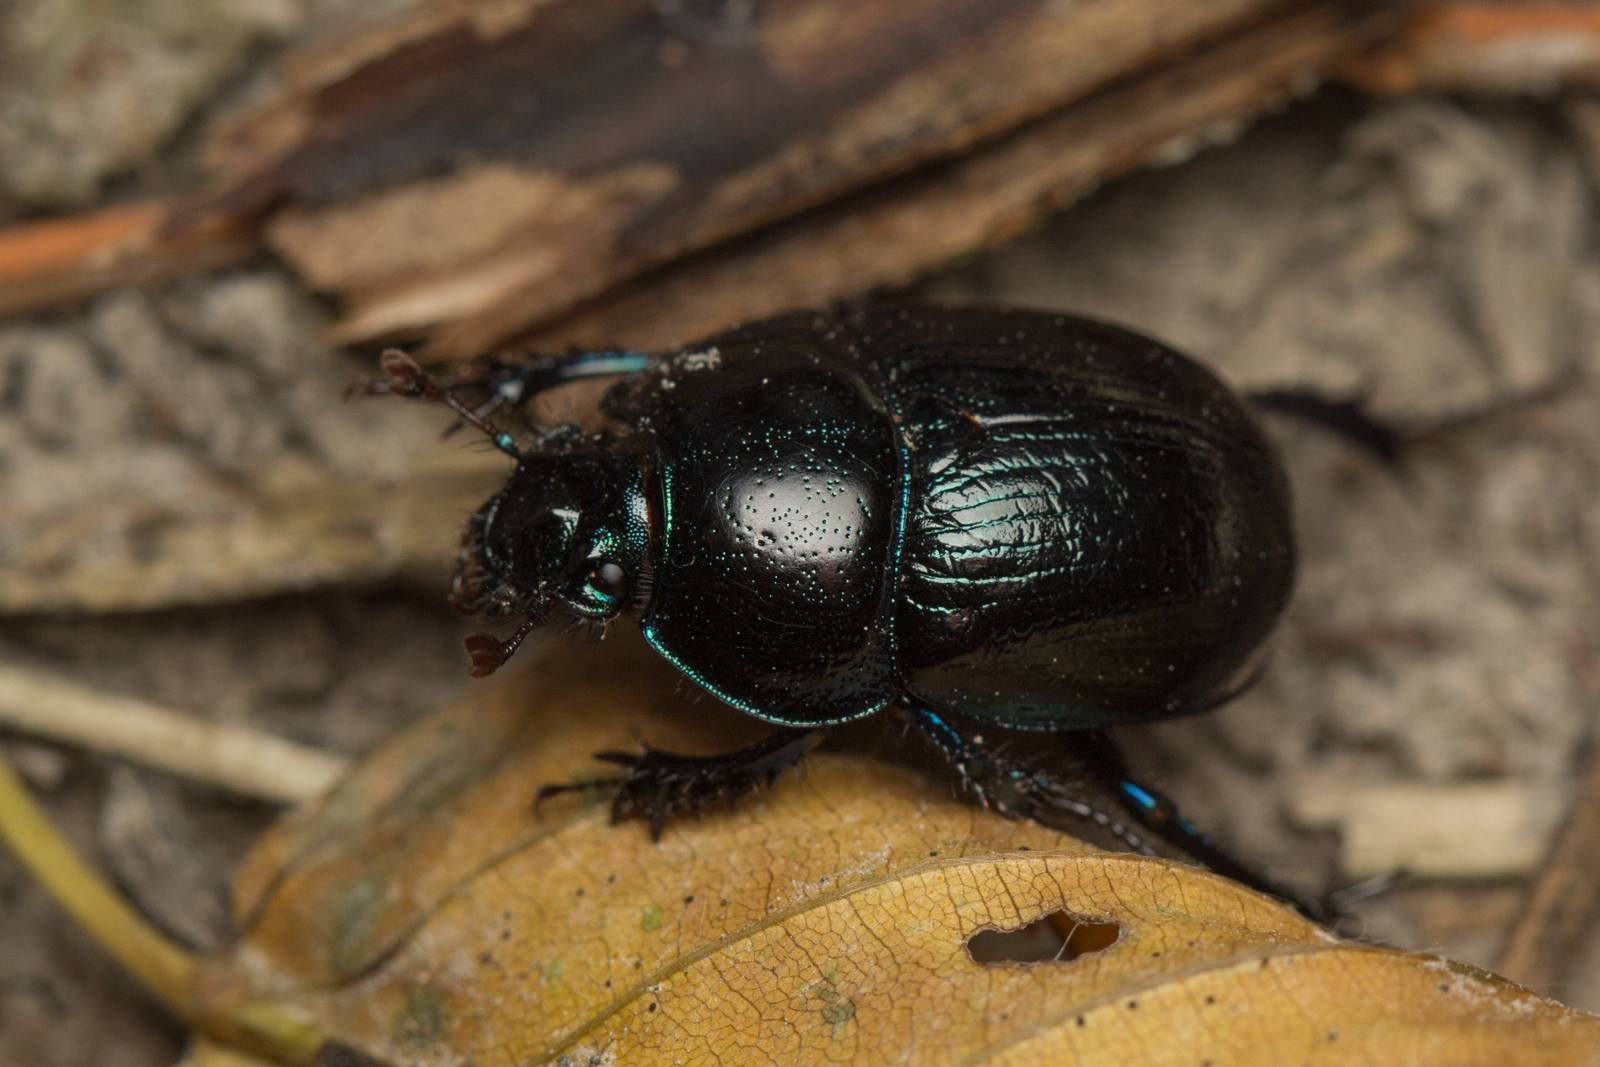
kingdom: Animalia
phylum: Arthropoda
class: Insecta
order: Coleoptera
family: Geotrupidae
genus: Anoplotrupes
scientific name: Anoplotrupes stercorosus
